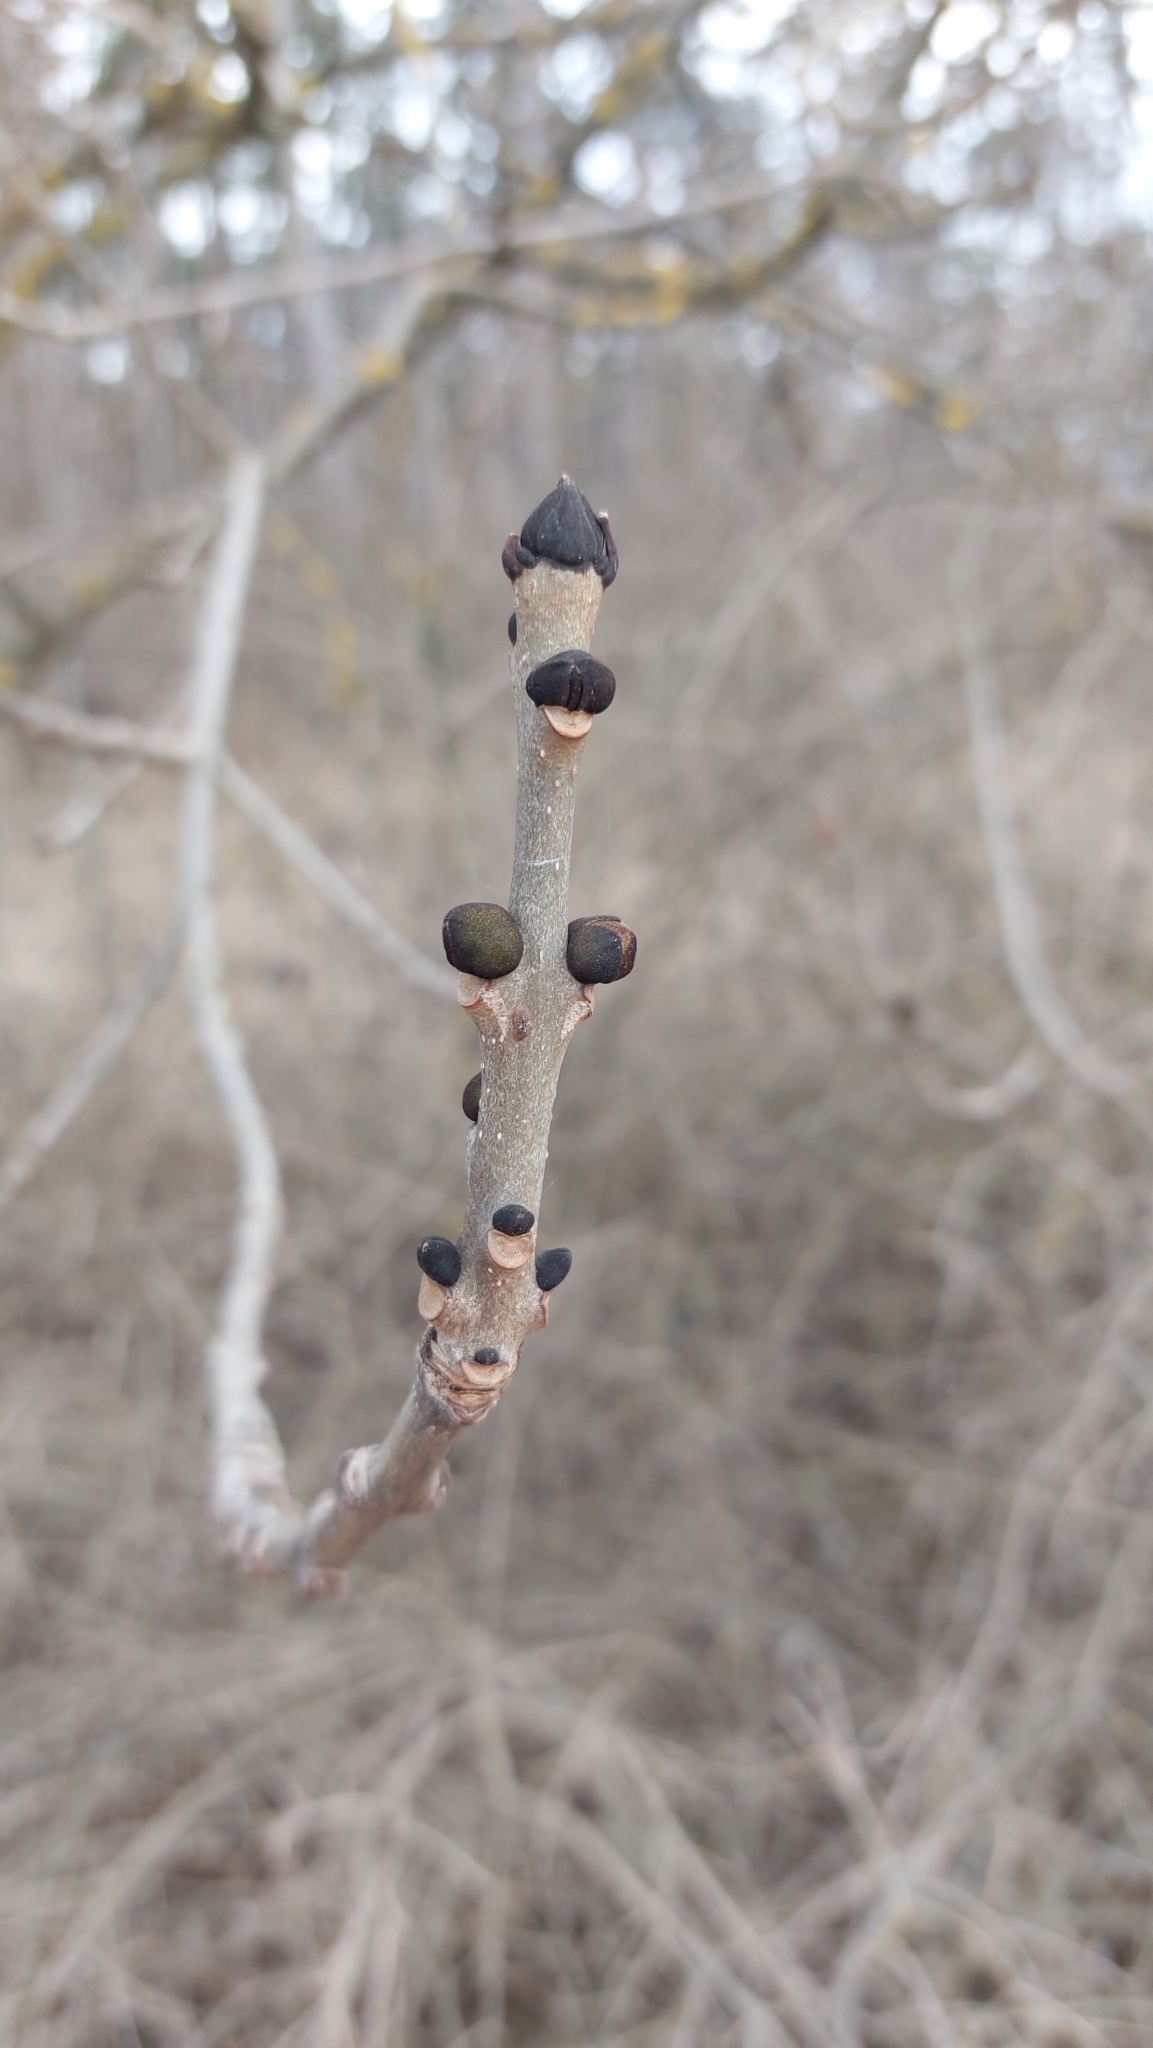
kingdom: Plantae
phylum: Tracheophyta
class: Magnoliopsida
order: Lamiales
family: Oleaceae
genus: Fraxinus
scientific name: Fraxinus excelsior
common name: European ash
